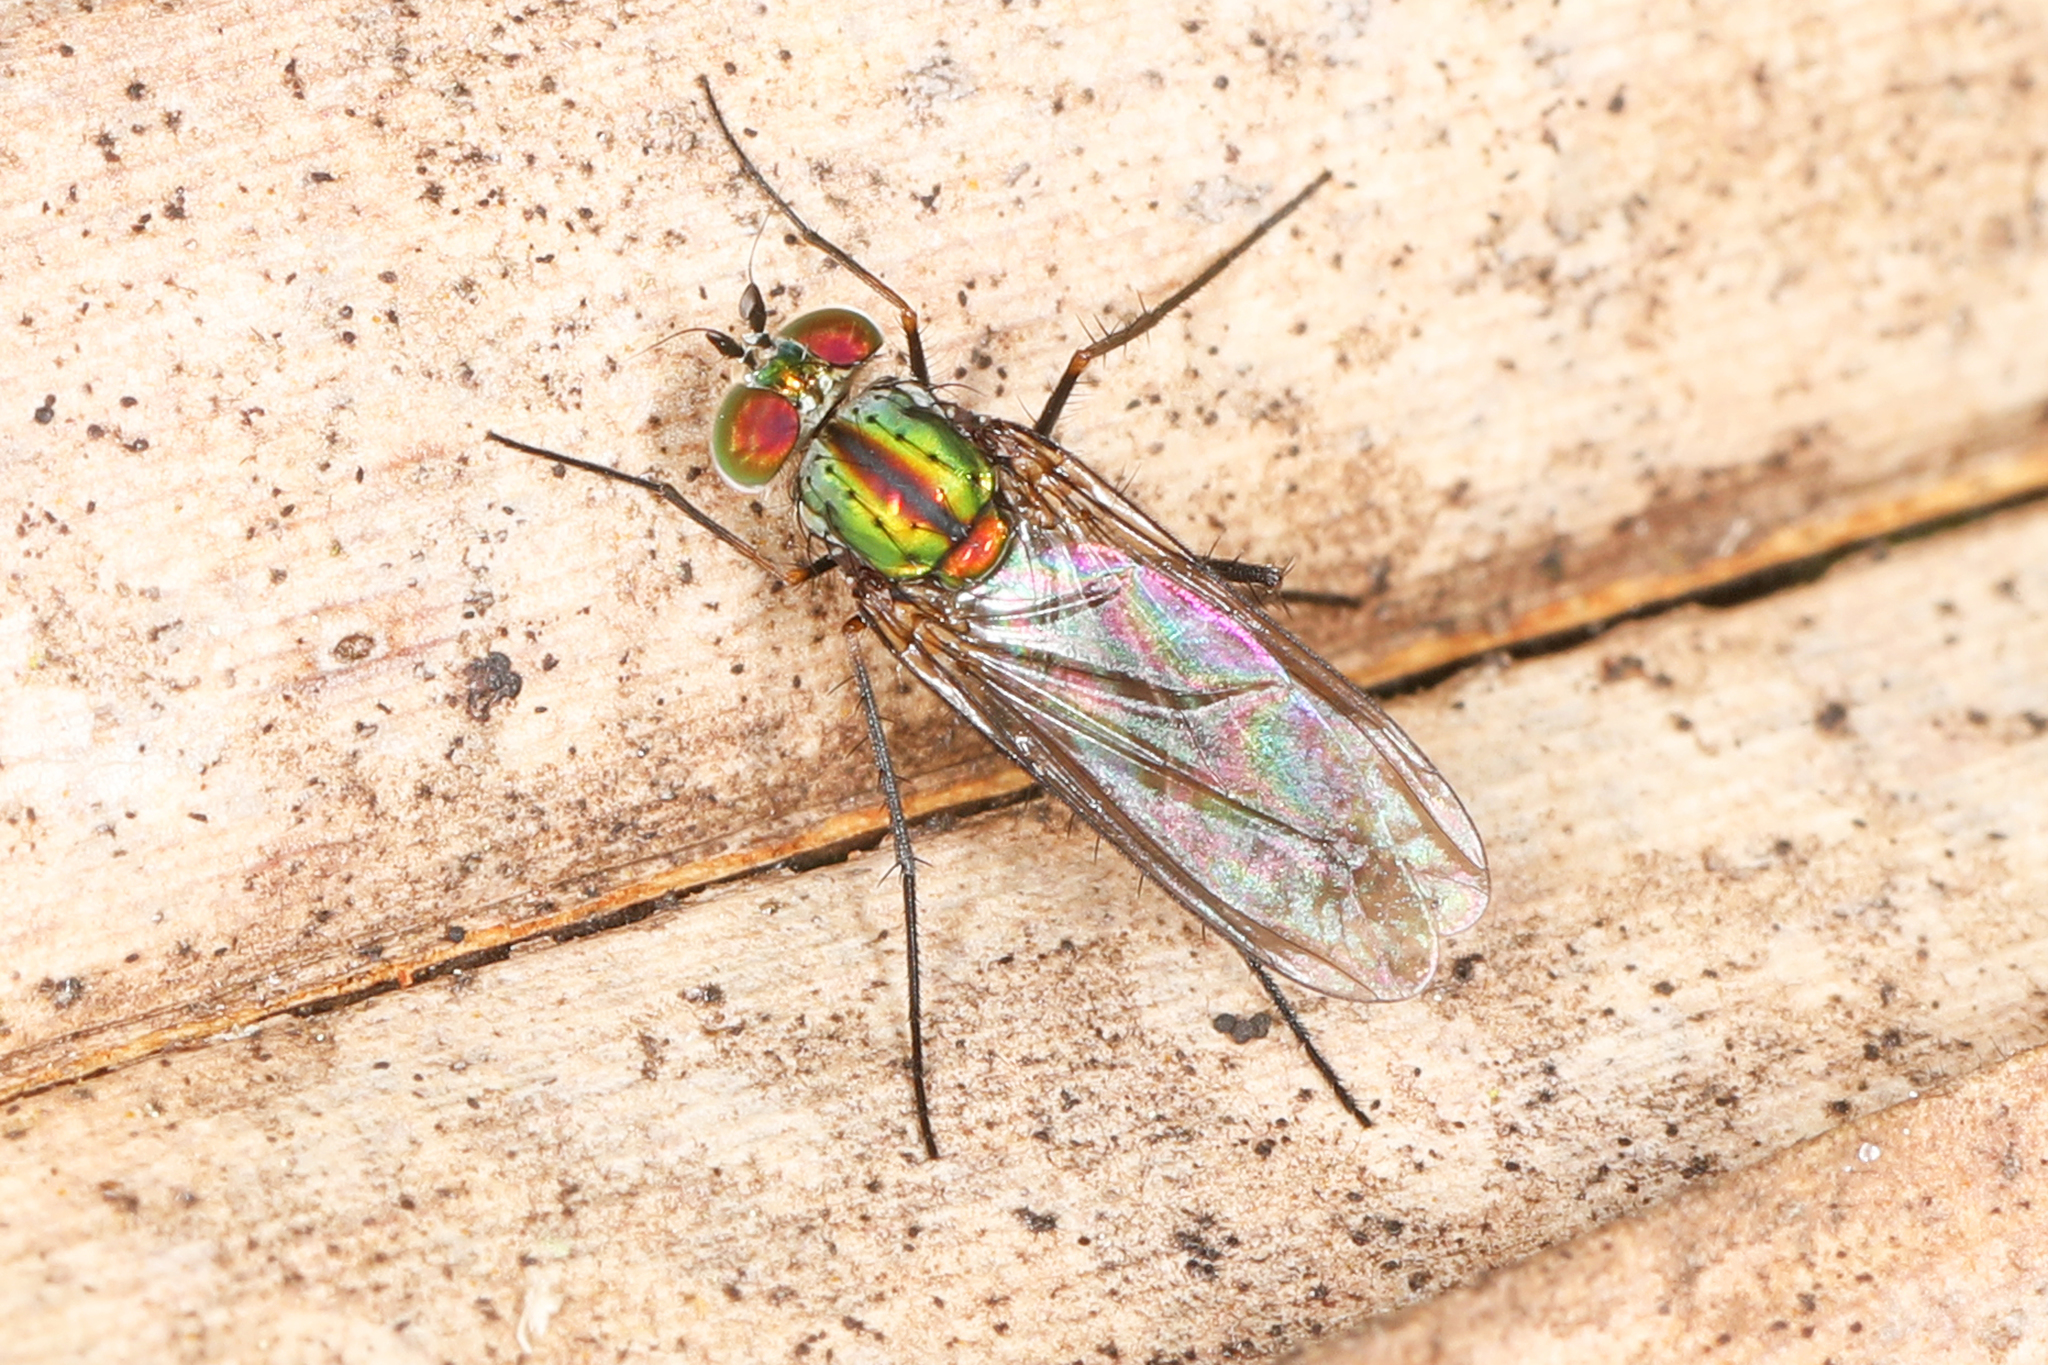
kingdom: Animalia
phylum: Arthropoda
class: Insecta
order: Diptera
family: Dolichopodidae
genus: Plagioneurus
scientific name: Plagioneurus univittatus
